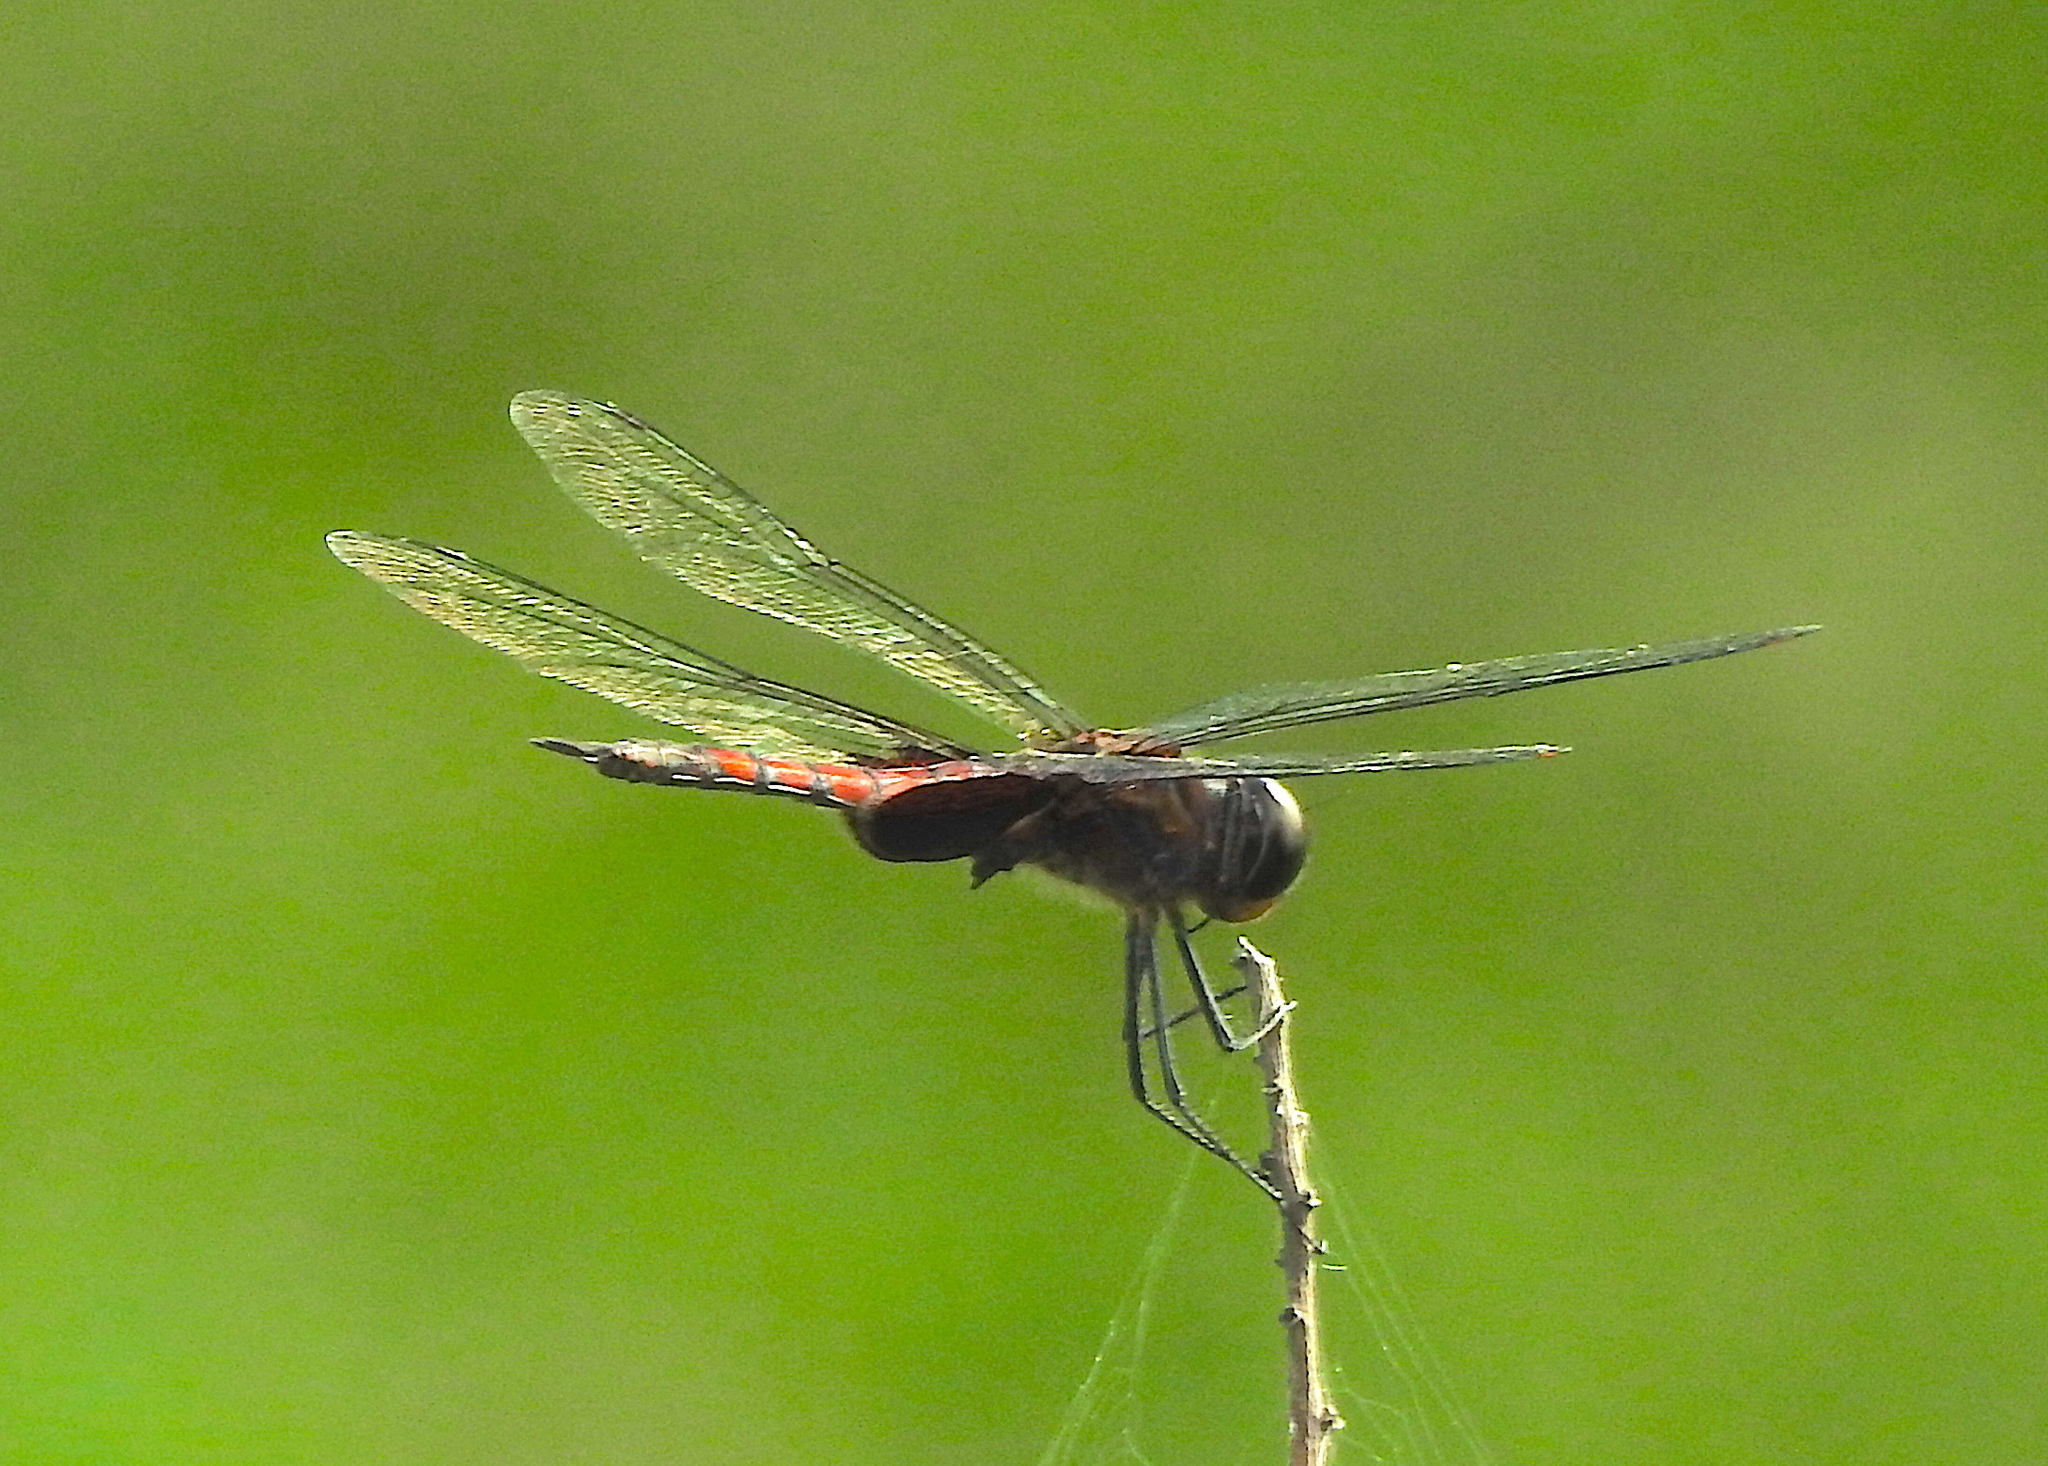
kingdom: Animalia
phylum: Arthropoda
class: Insecta
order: Odonata
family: Libellulidae
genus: Tramea
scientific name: Tramea limbata
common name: Ferruginous glider
